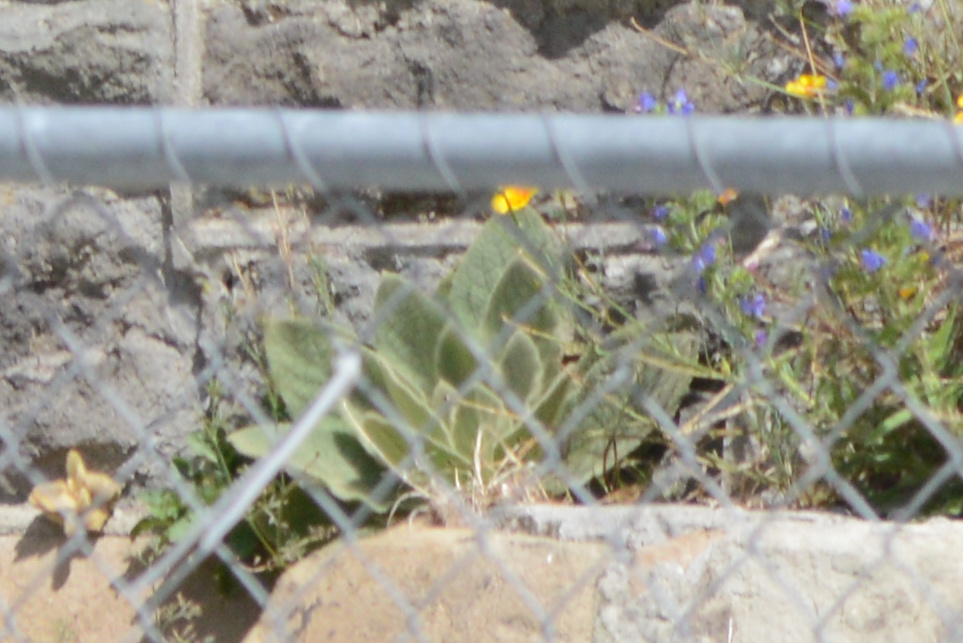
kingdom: Plantae
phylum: Tracheophyta
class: Magnoliopsida
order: Lamiales
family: Scrophulariaceae
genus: Verbascum
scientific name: Verbascum thapsus
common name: Common mullein
